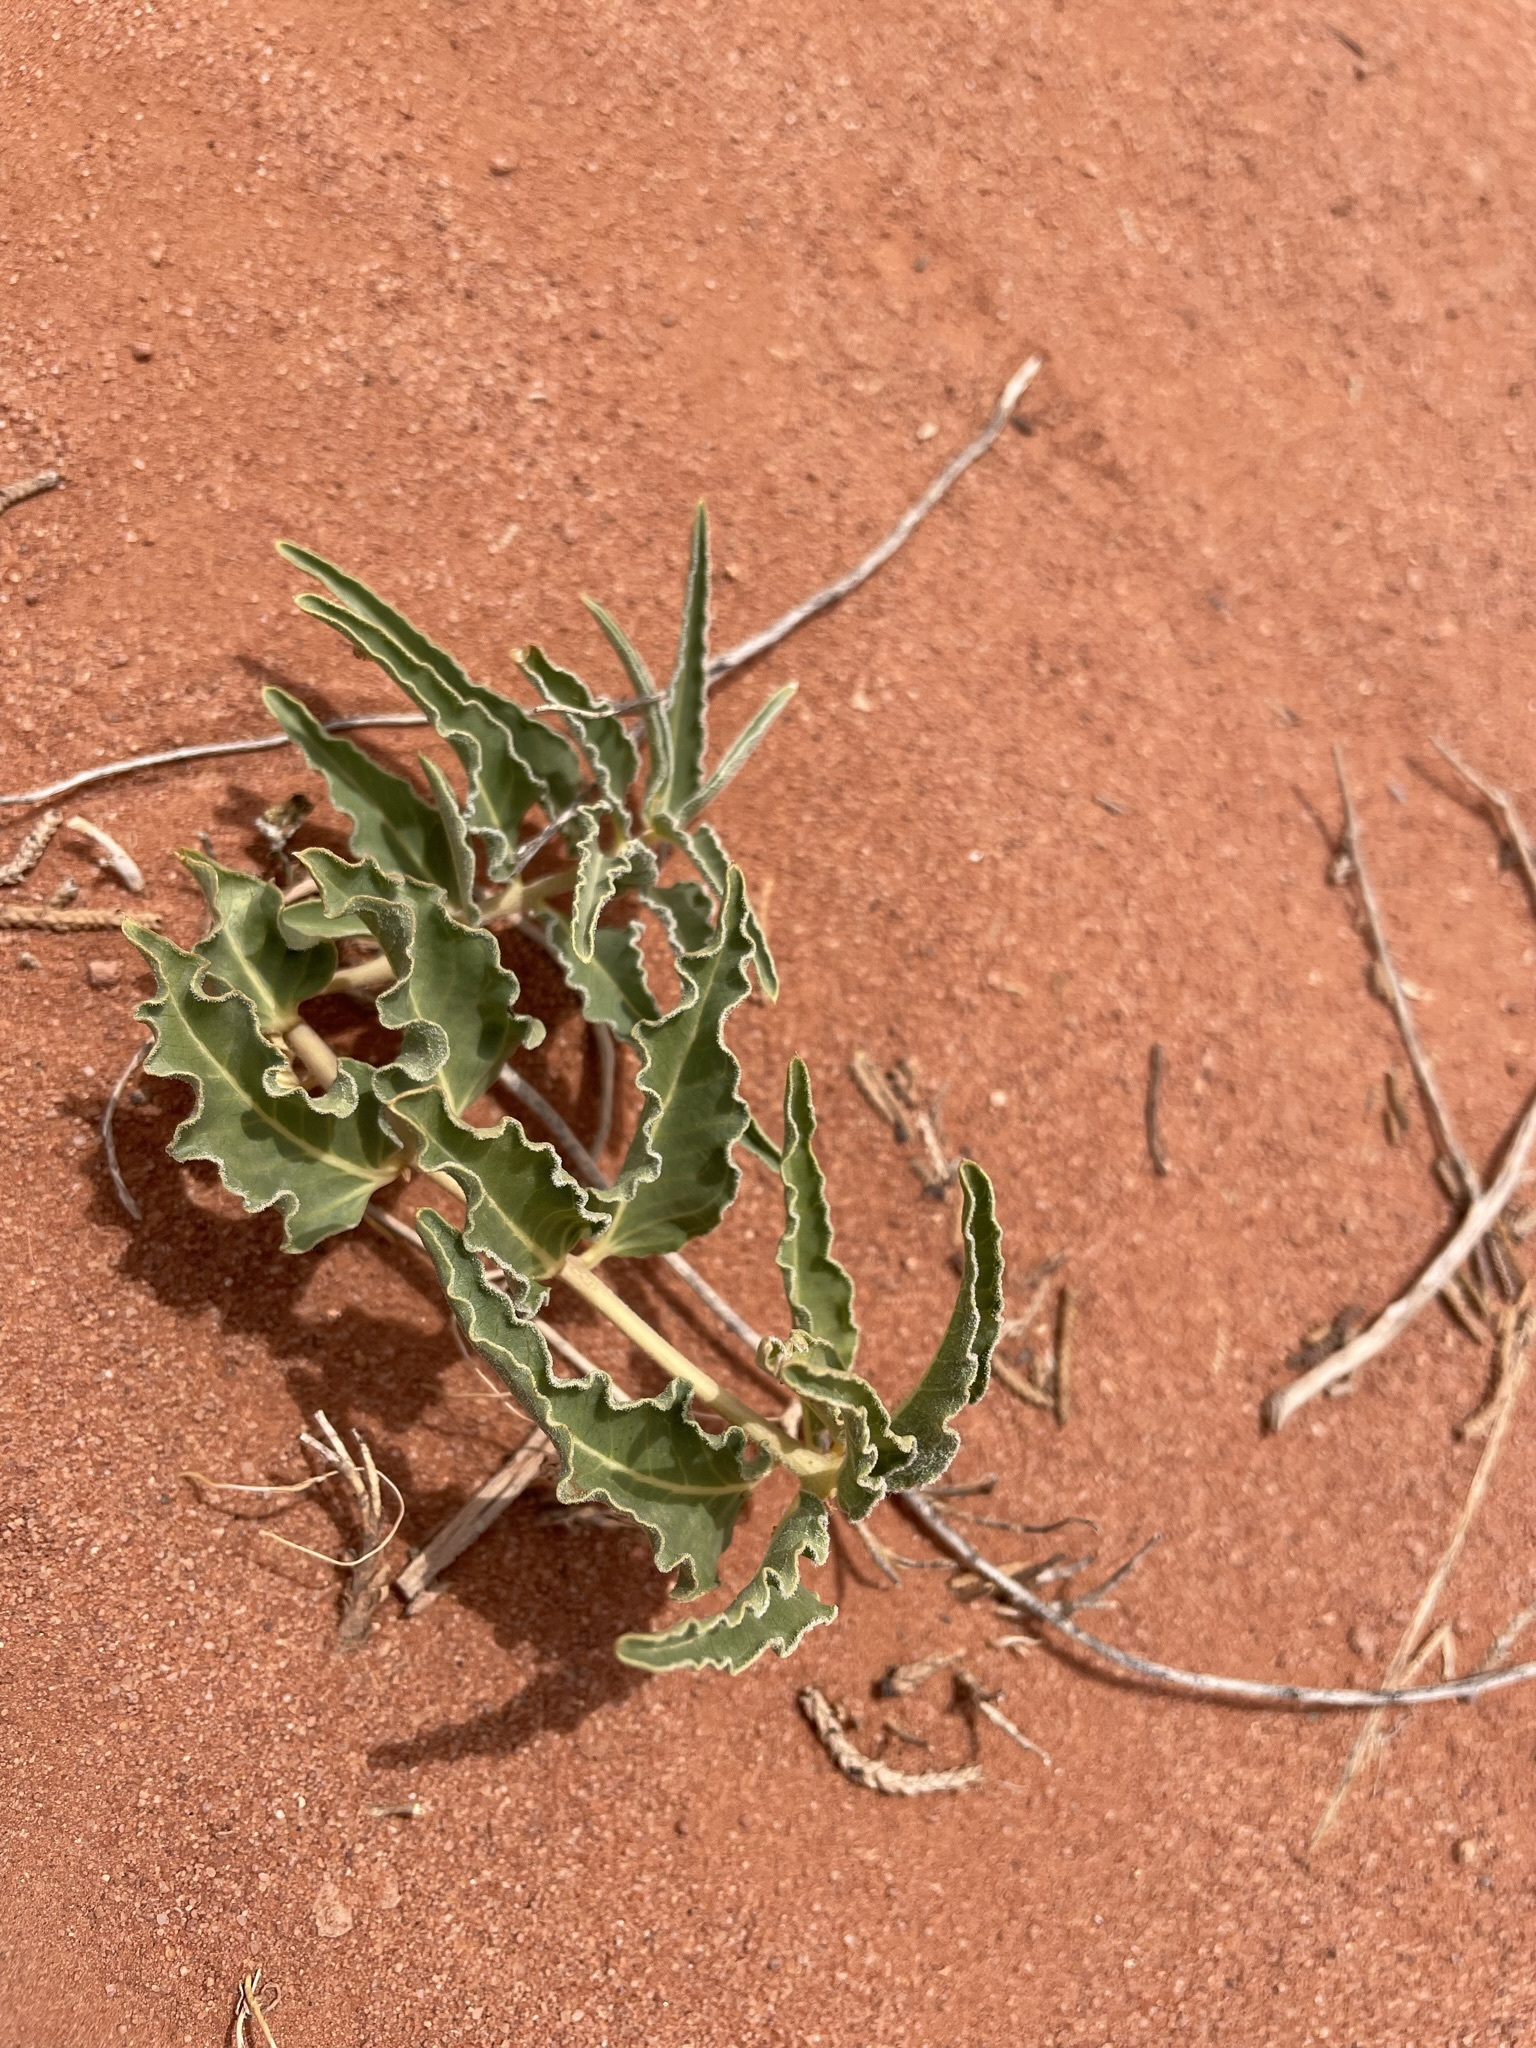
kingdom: Plantae
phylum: Tracheophyta
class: Magnoliopsida
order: Gentianales
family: Apocynaceae
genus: Asclepias
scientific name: Asclepias involucrata
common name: Dwarf milkweed
